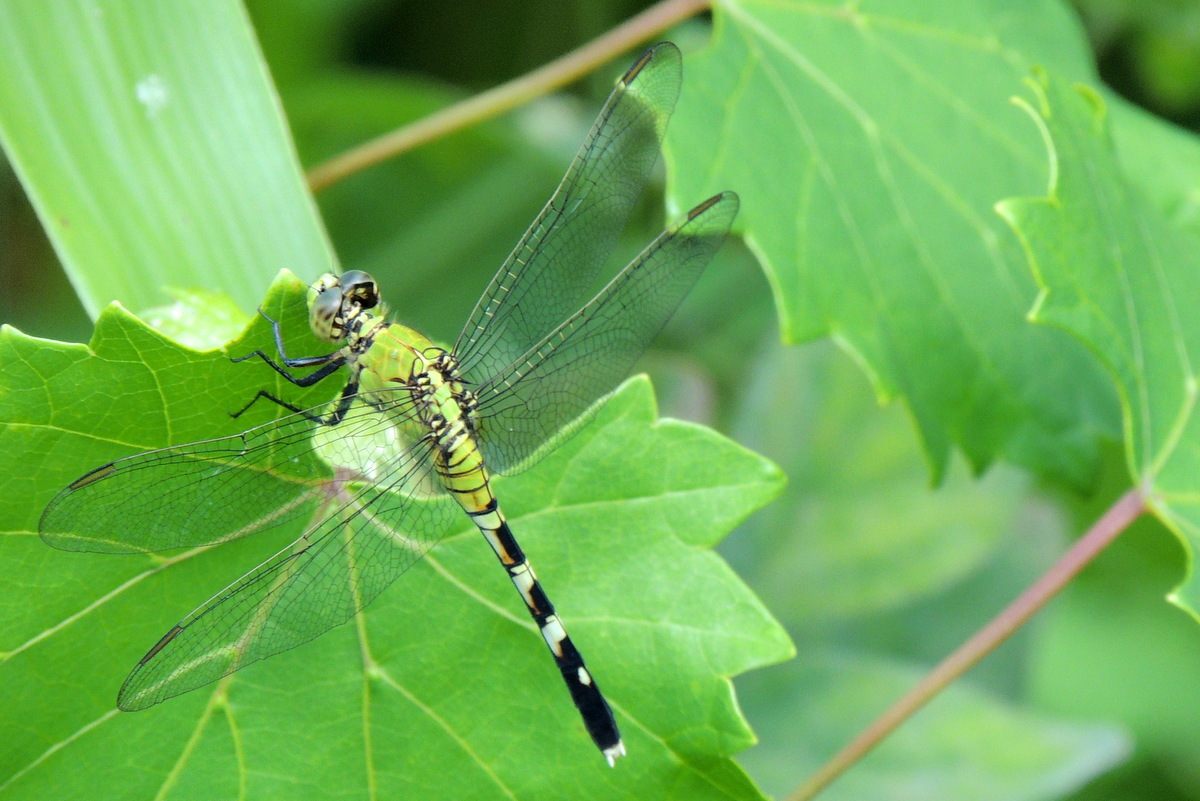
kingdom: Animalia
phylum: Arthropoda
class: Insecta
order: Odonata
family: Libellulidae
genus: Erythemis
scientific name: Erythemis simplicicollis
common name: Eastern pondhawk
